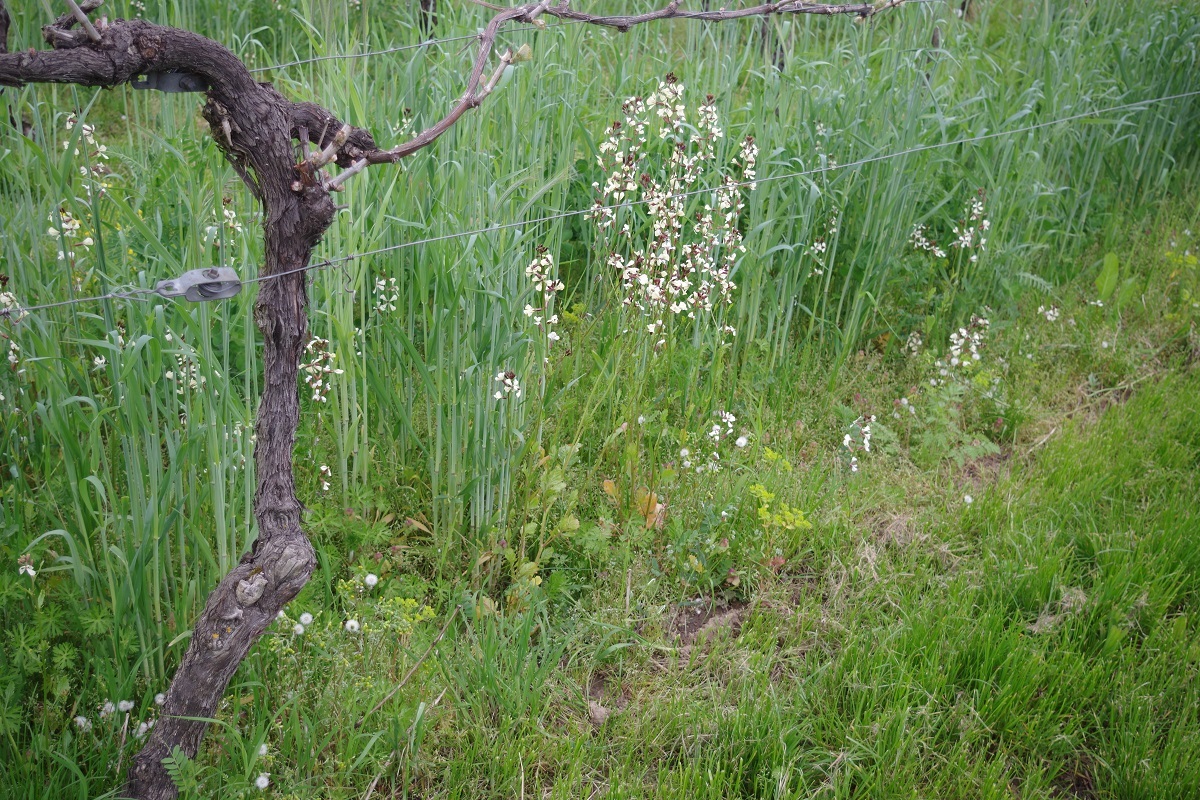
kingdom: Plantae
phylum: Tracheophyta
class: Magnoliopsida
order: Brassicales
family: Brassicaceae
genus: Eruca
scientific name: Eruca vesicaria
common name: Garden rocket
